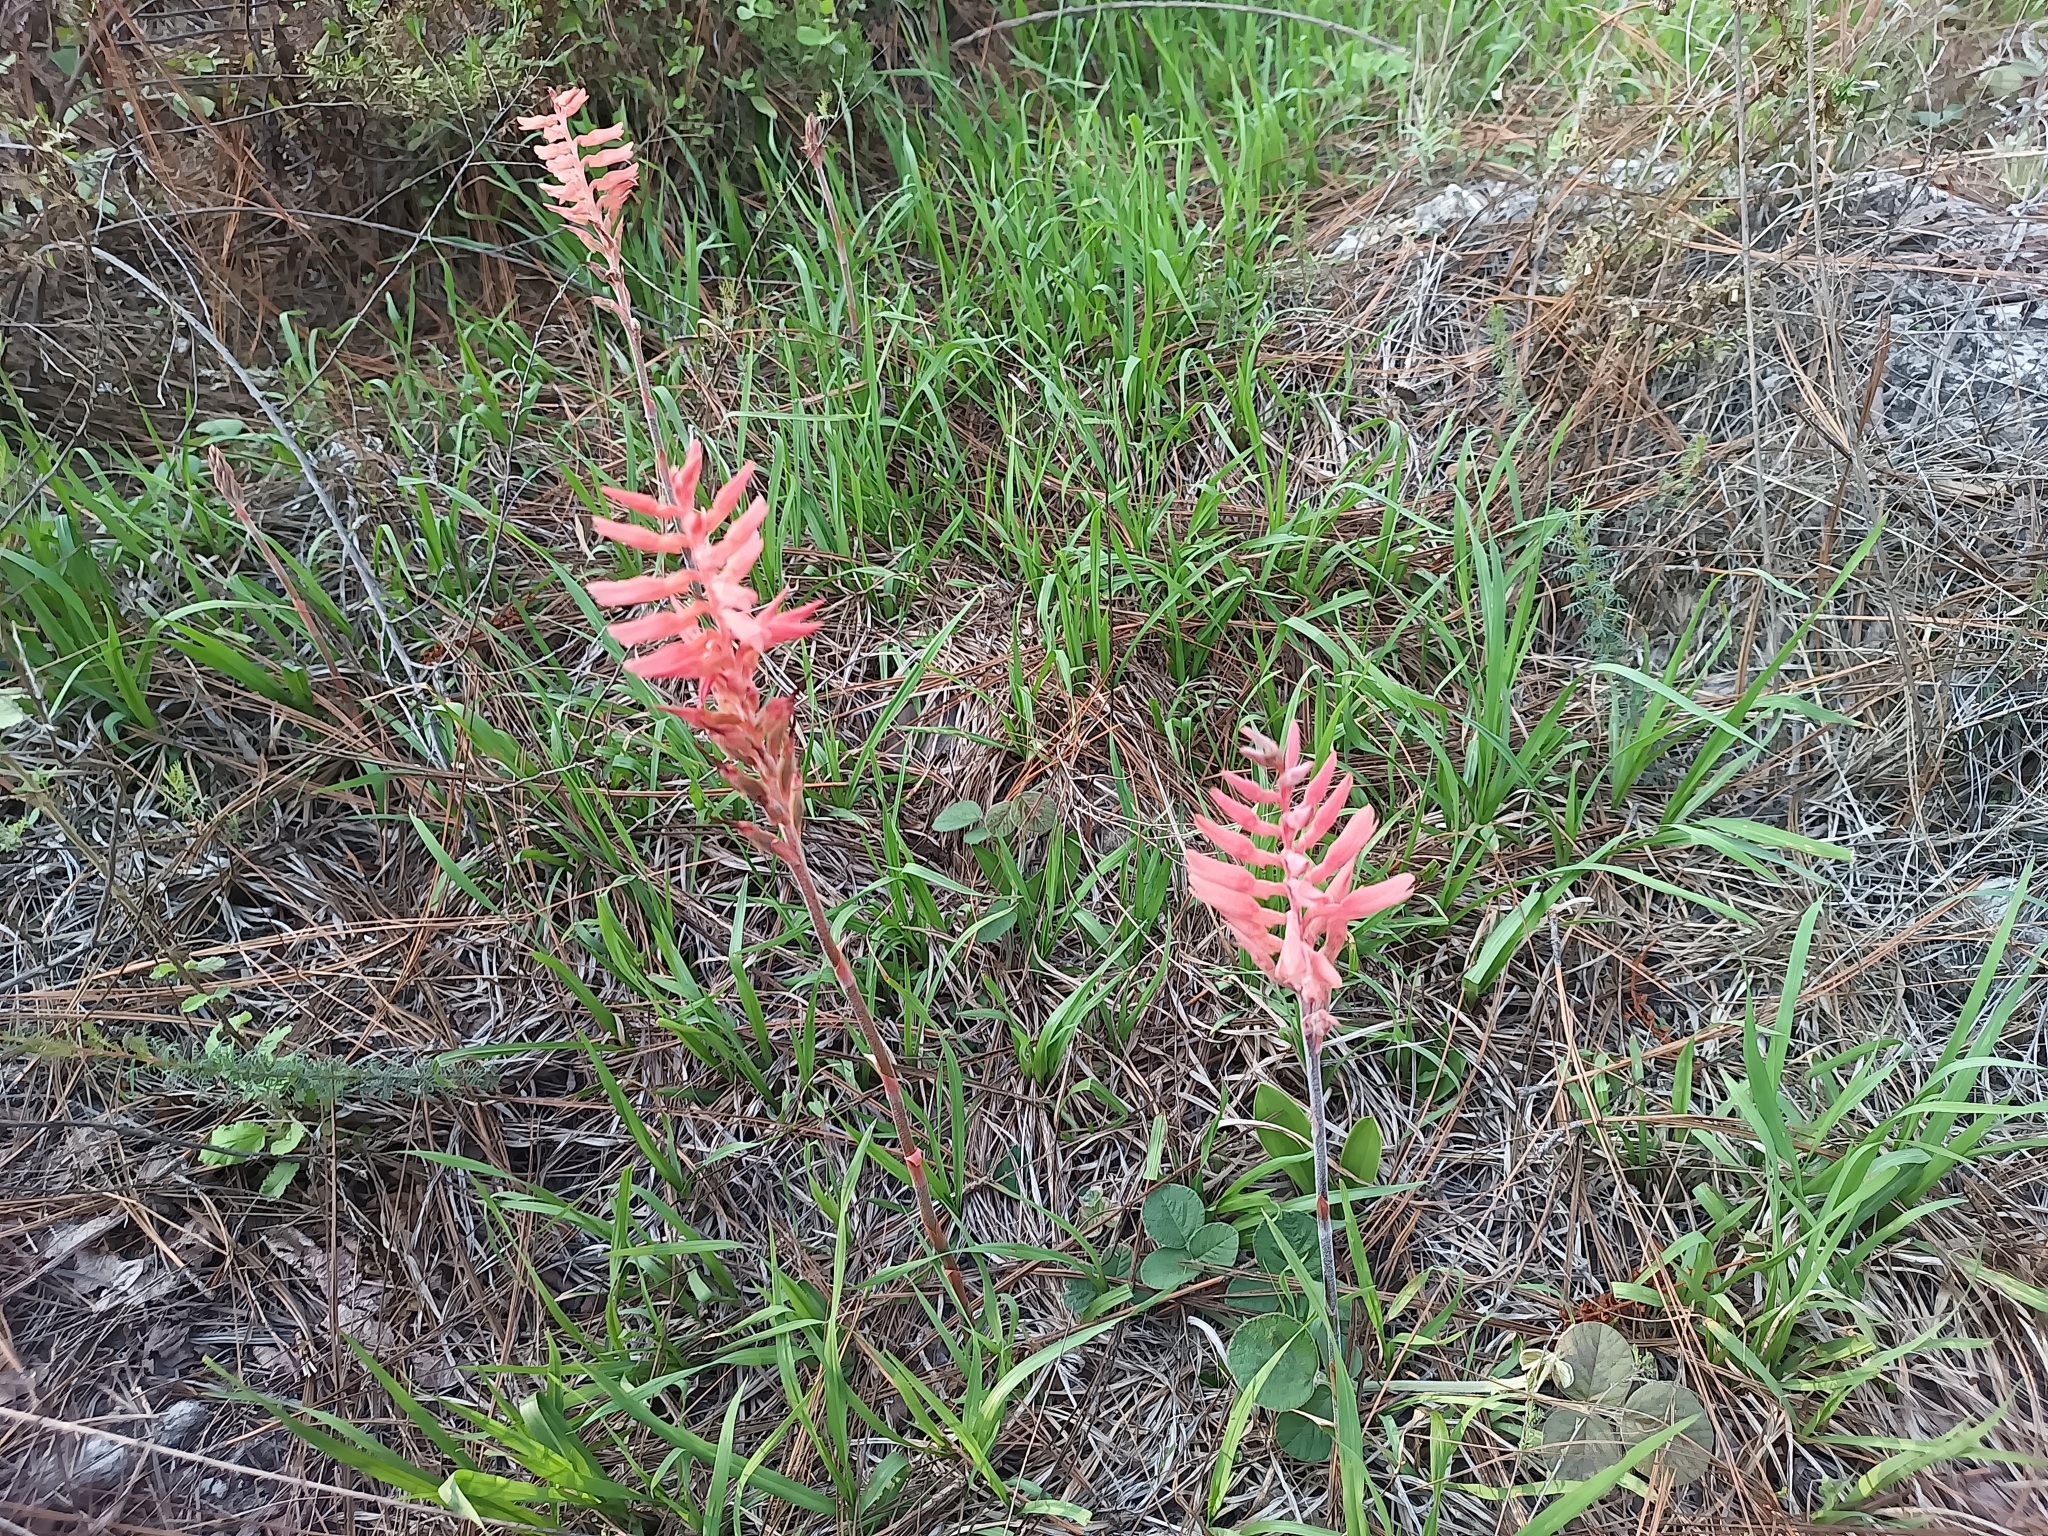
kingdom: Plantae
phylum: Tracheophyta
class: Liliopsida
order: Asparagales
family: Orchidaceae
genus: Sacoila
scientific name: Sacoila lanceolata
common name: Leafless beaked ladiestresses
